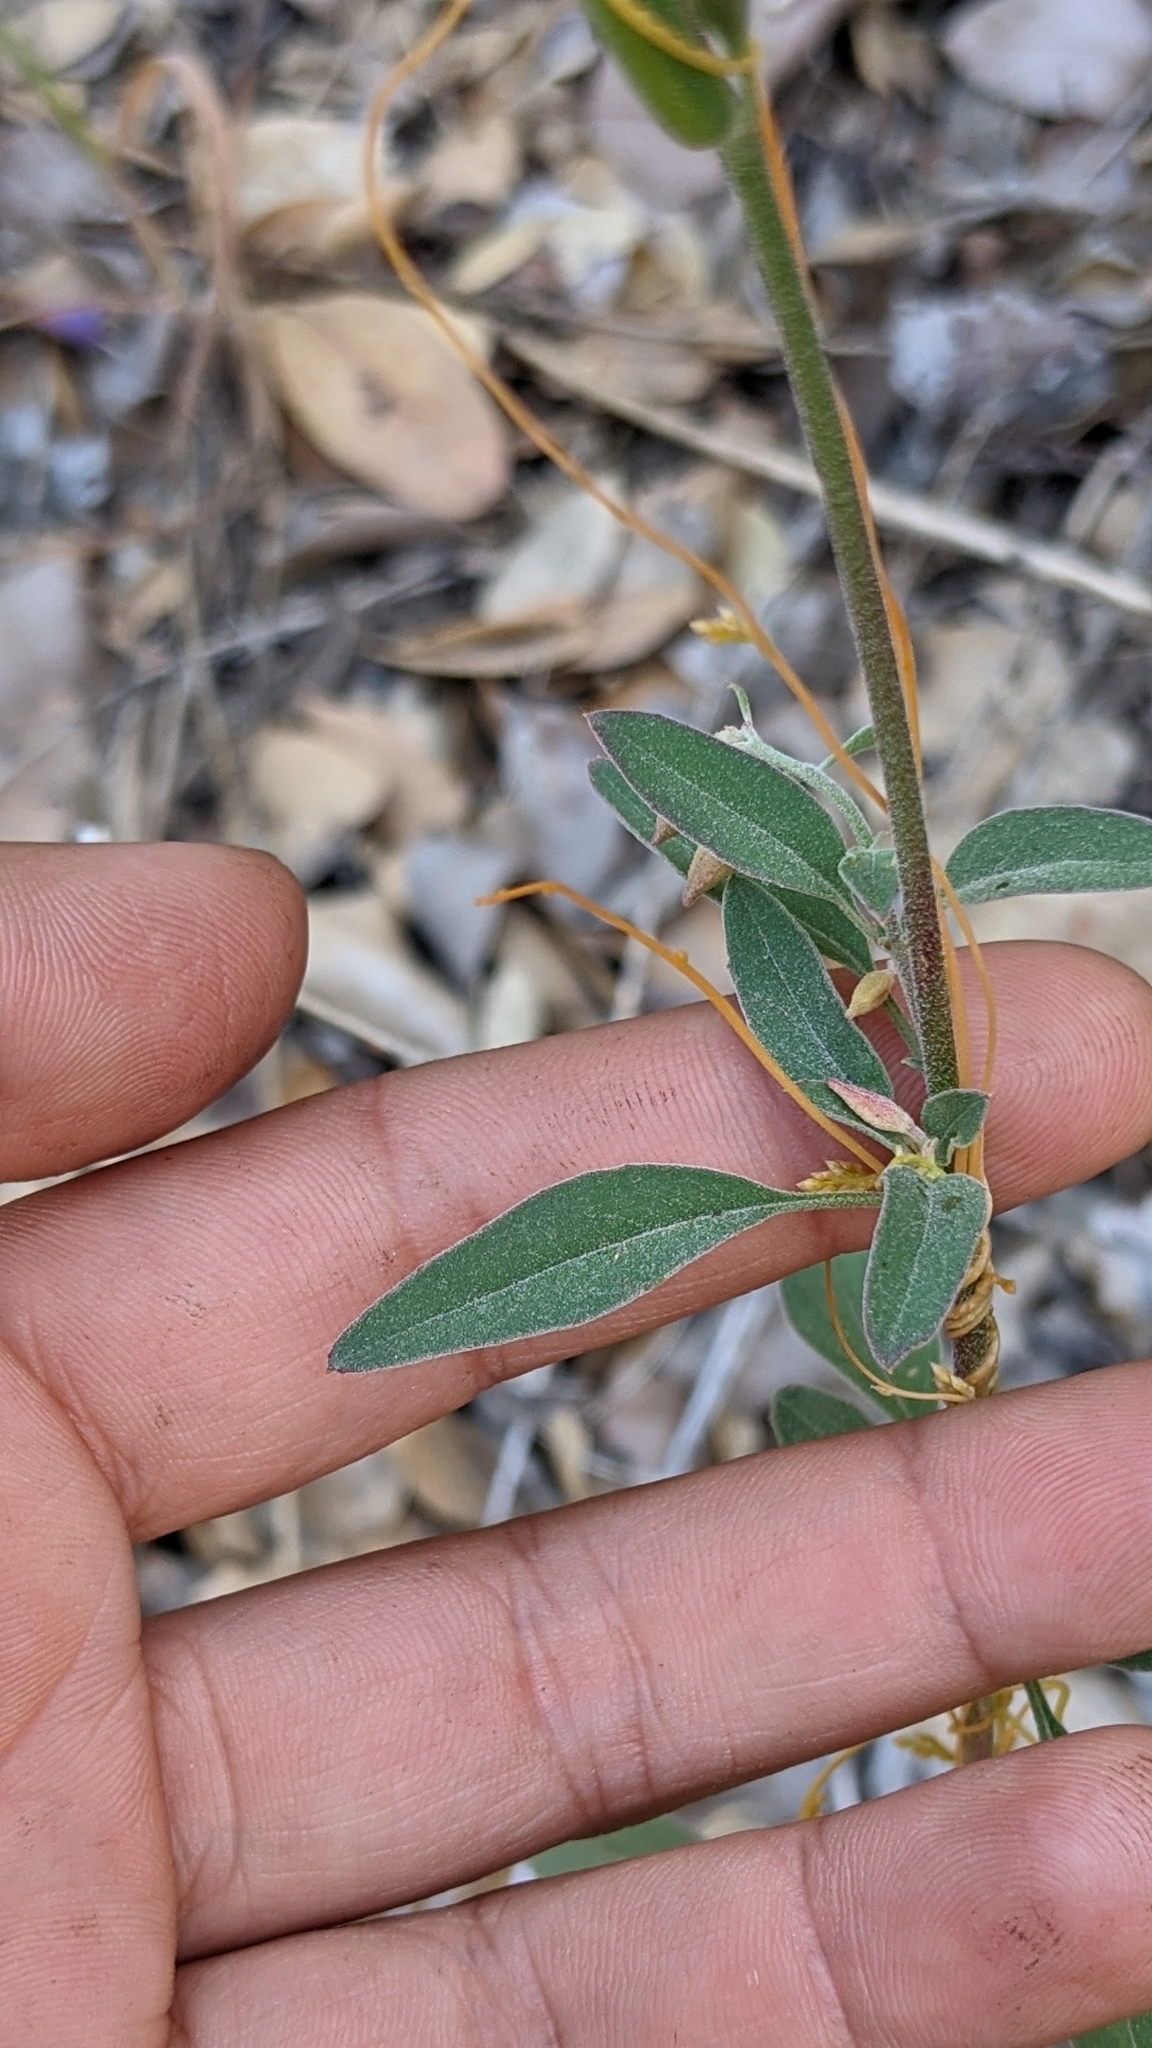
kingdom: Plantae
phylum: Tracheophyta
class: Magnoliopsida
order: Myrtales
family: Onagraceae
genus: Clarkia
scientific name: Clarkia rhomboidea
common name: Broadleaf clarkia
